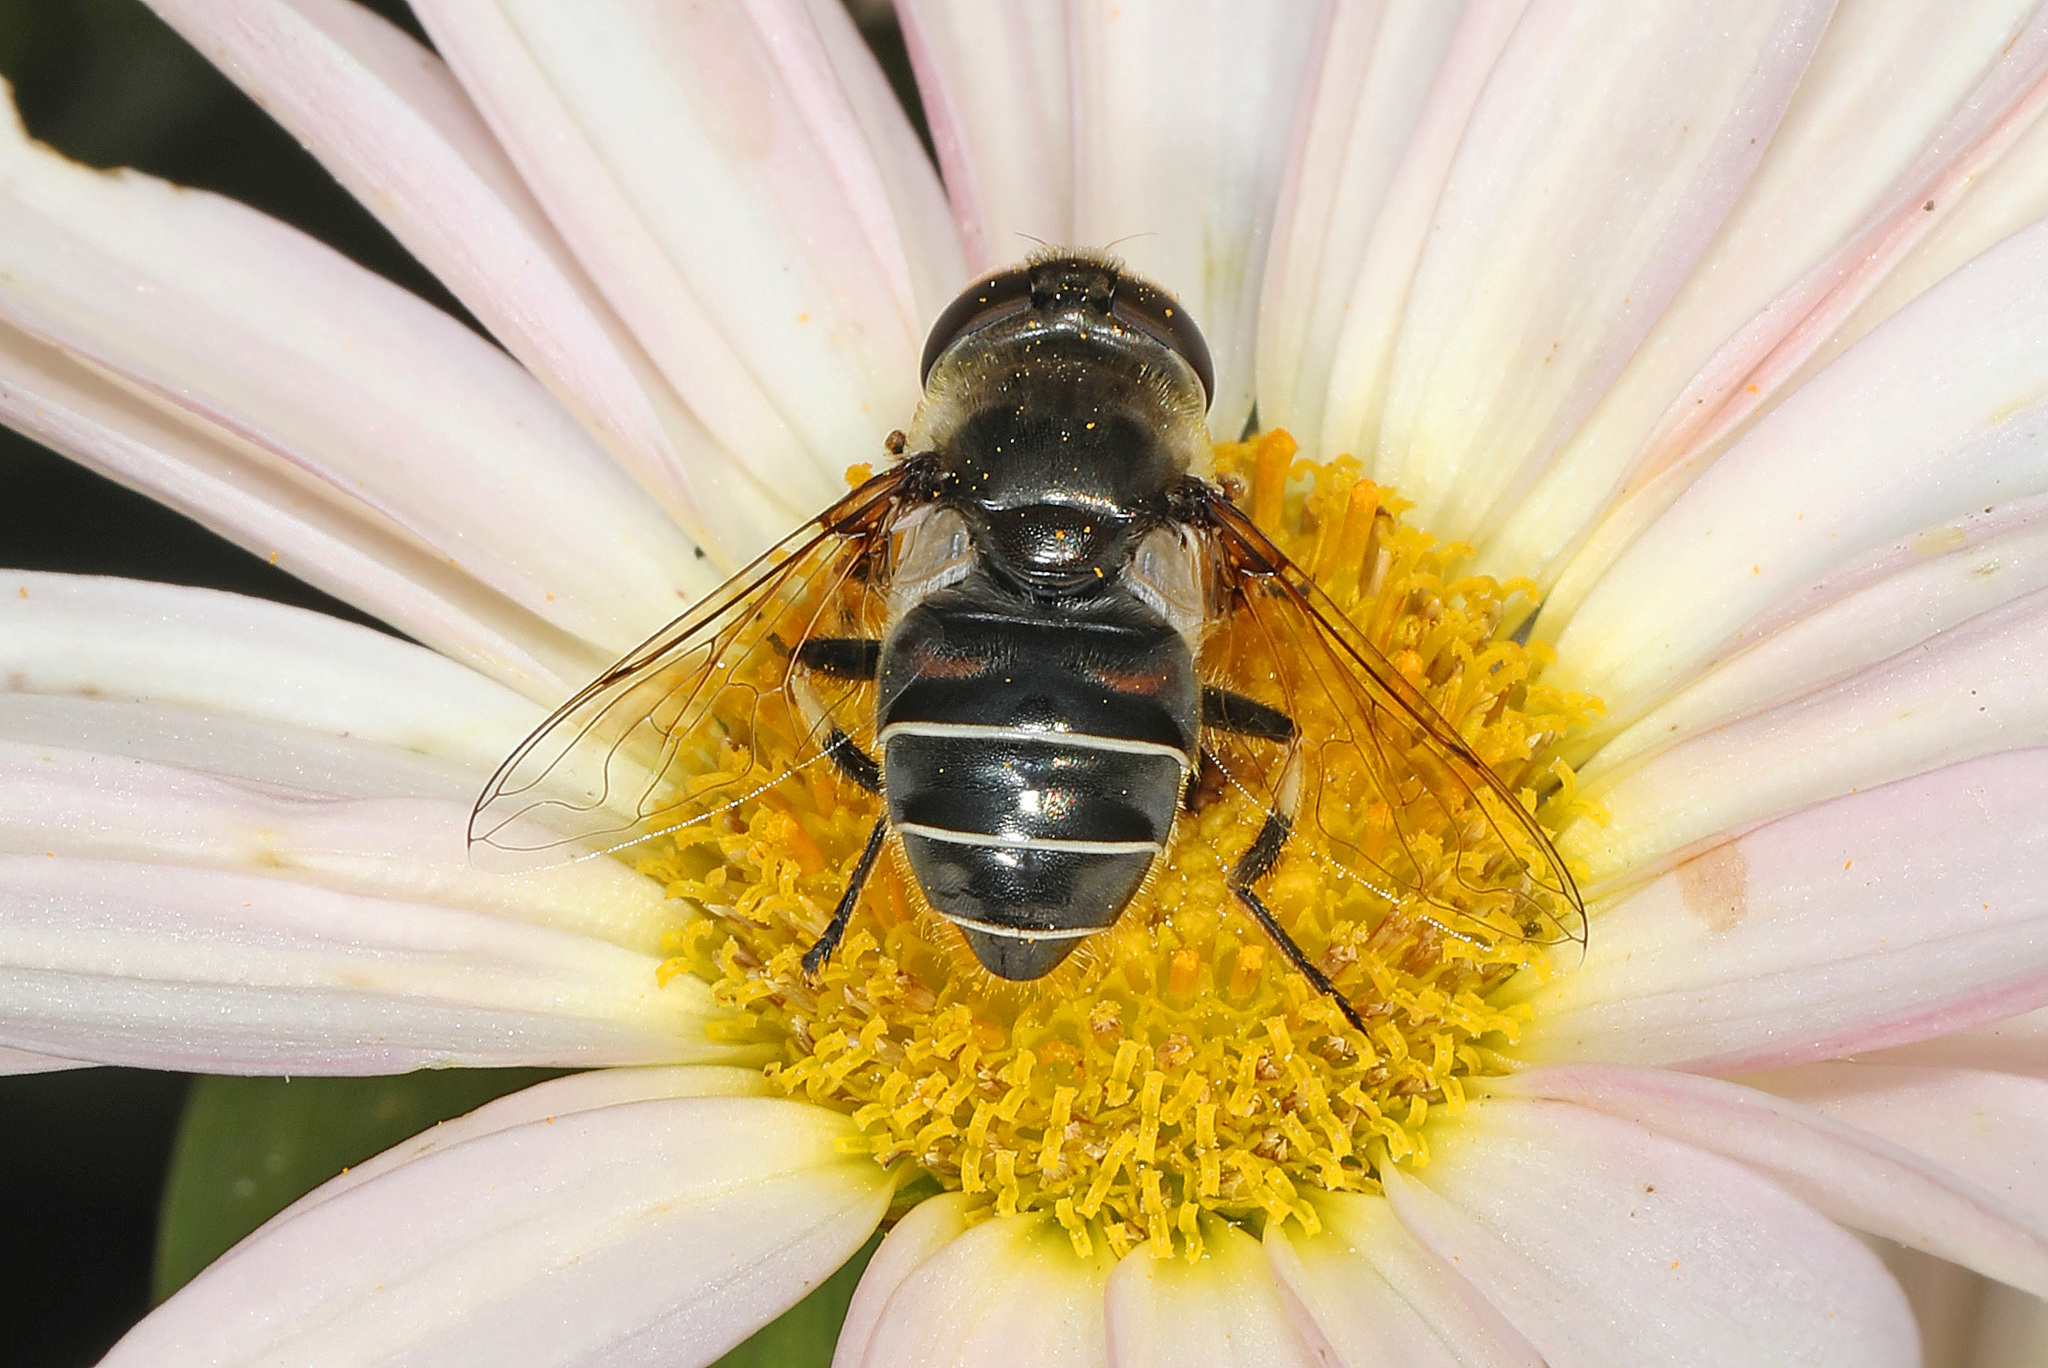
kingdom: Animalia
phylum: Arthropoda
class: Insecta
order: Diptera
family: Syrphidae
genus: Eristalis
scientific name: Eristalis dimidiata
